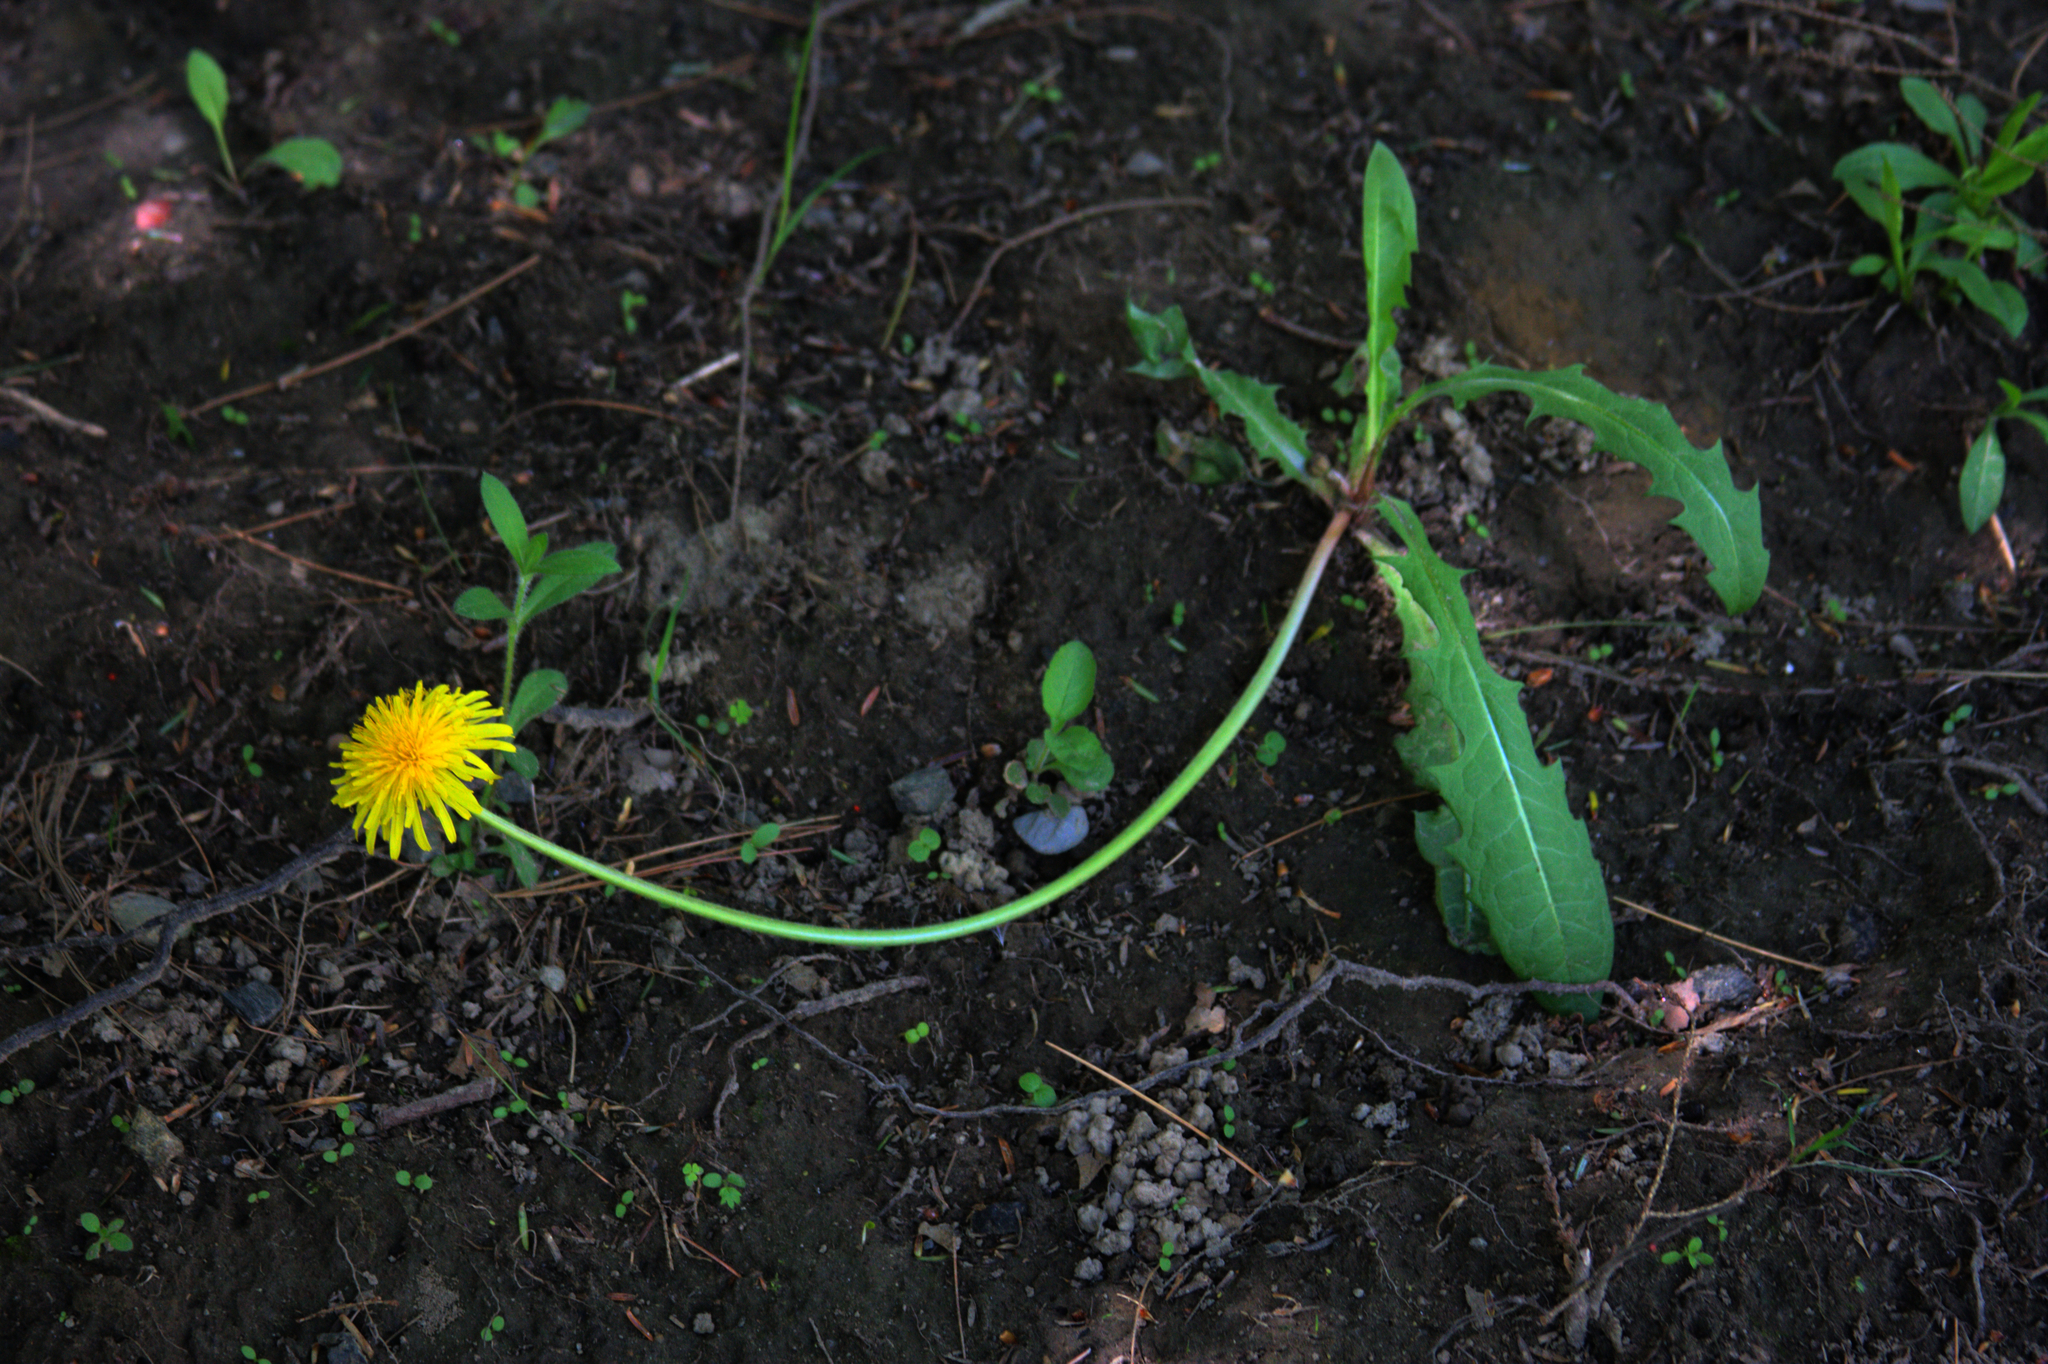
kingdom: Plantae
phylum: Tracheophyta
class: Magnoliopsida
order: Asterales
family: Asteraceae
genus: Taraxacum
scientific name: Taraxacum officinale
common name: Common dandelion
